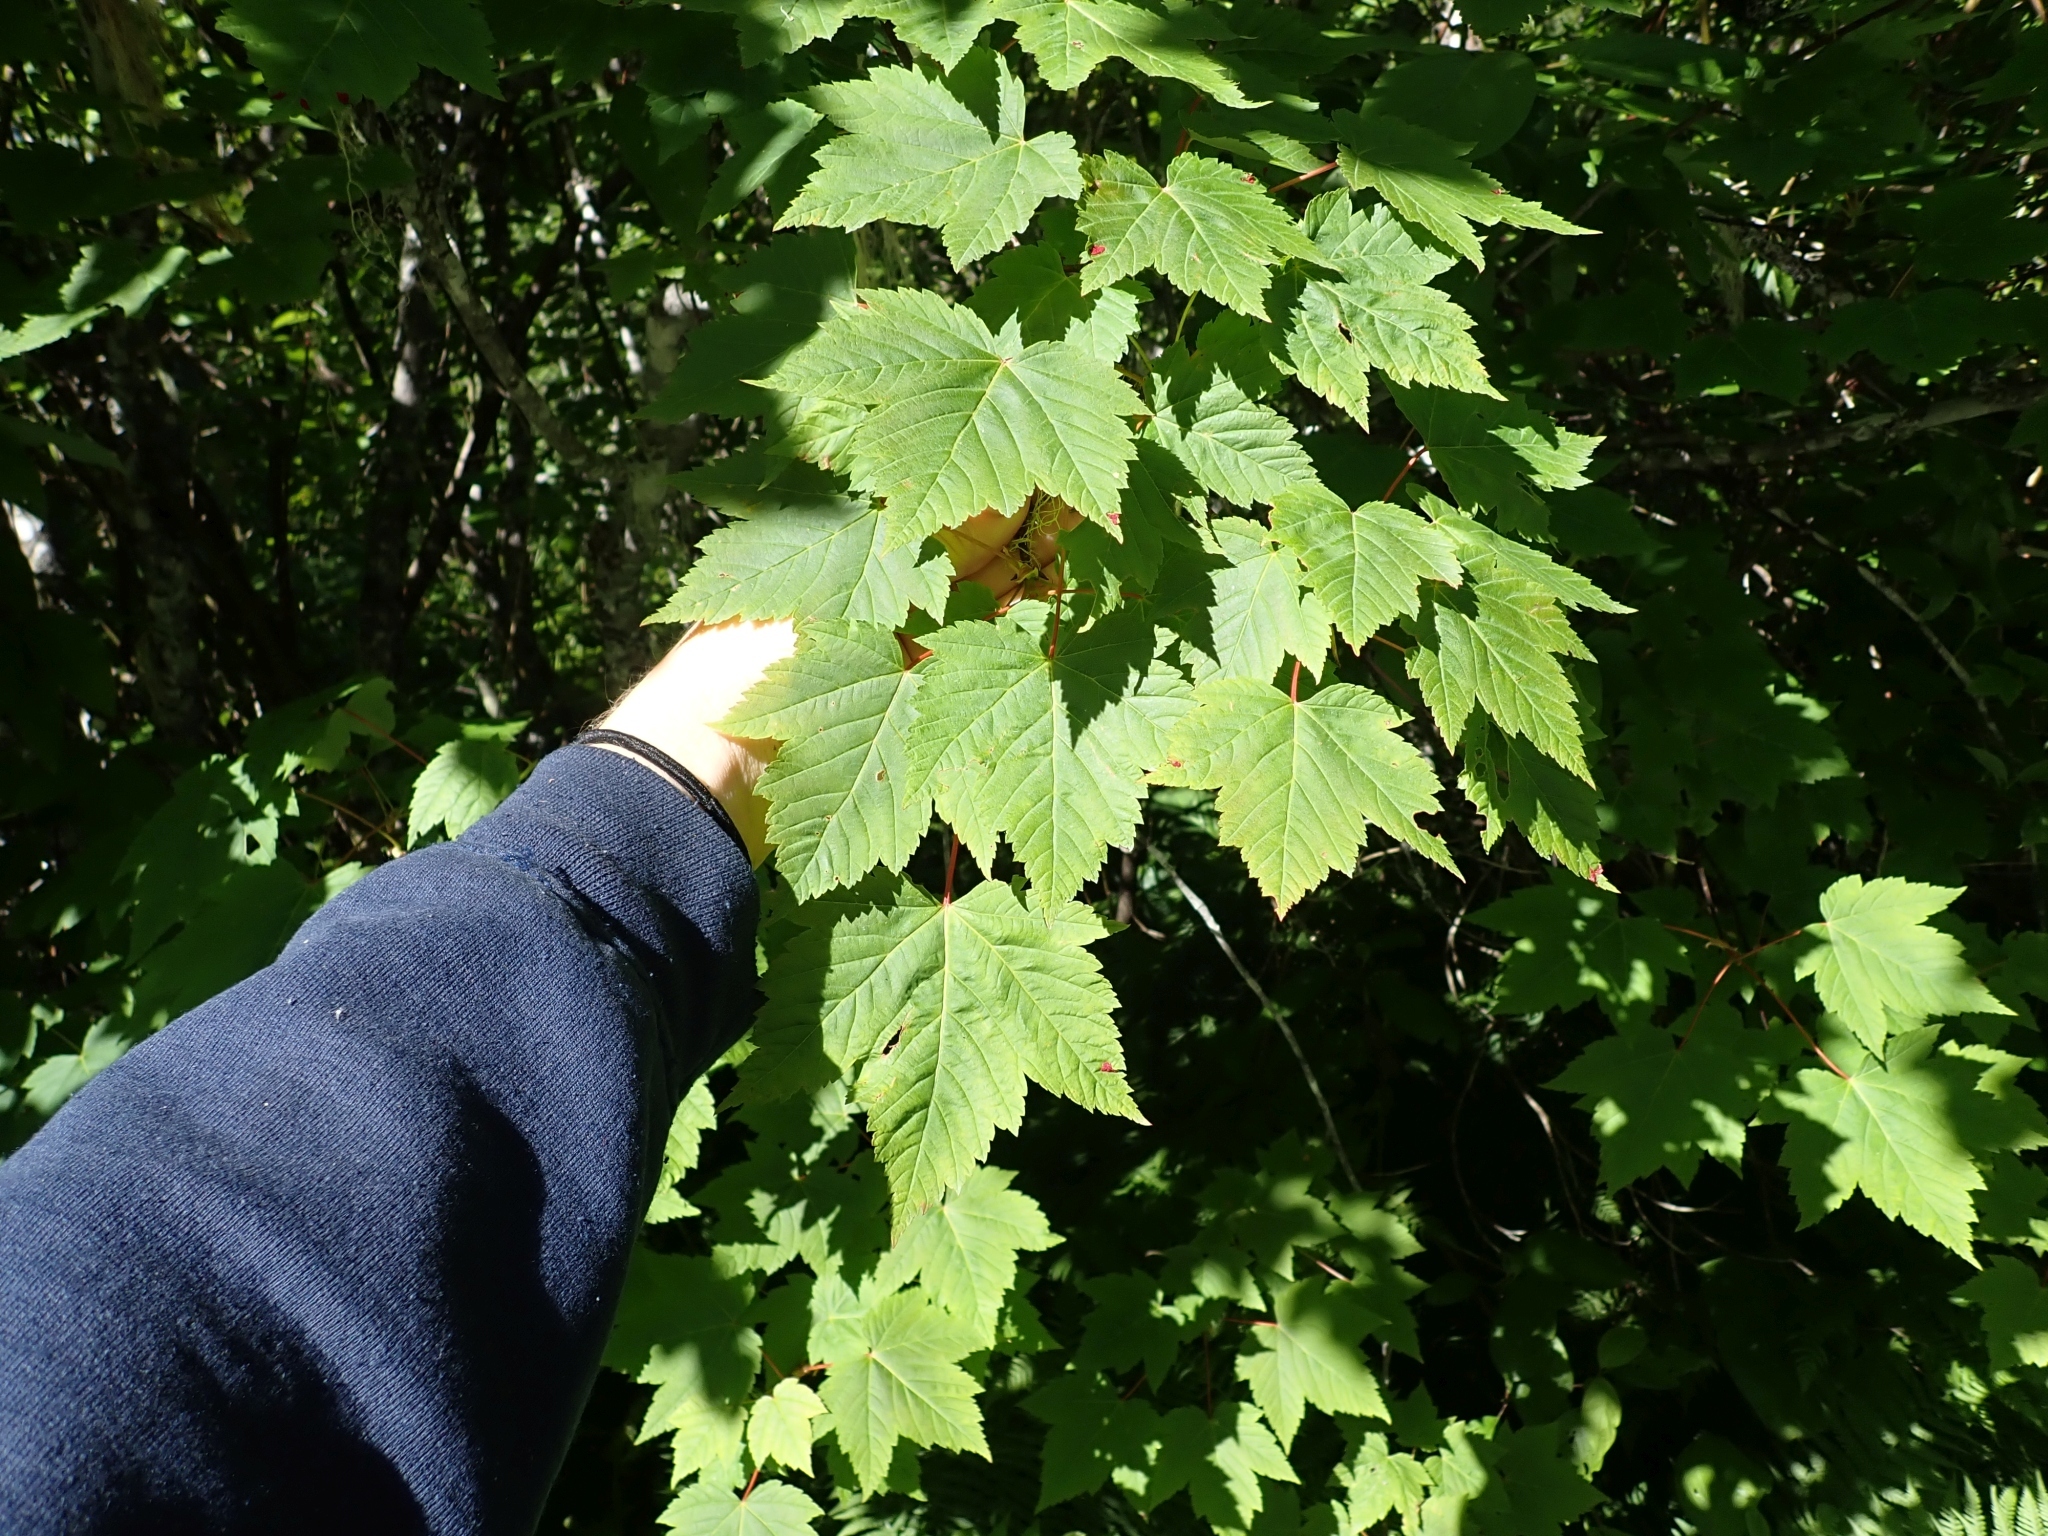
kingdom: Plantae
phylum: Tracheophyta
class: Magnoliopsida
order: Sapindales
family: Sapindaceae
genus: Acer
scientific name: Acer glabrum
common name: Rocky mountain maple
